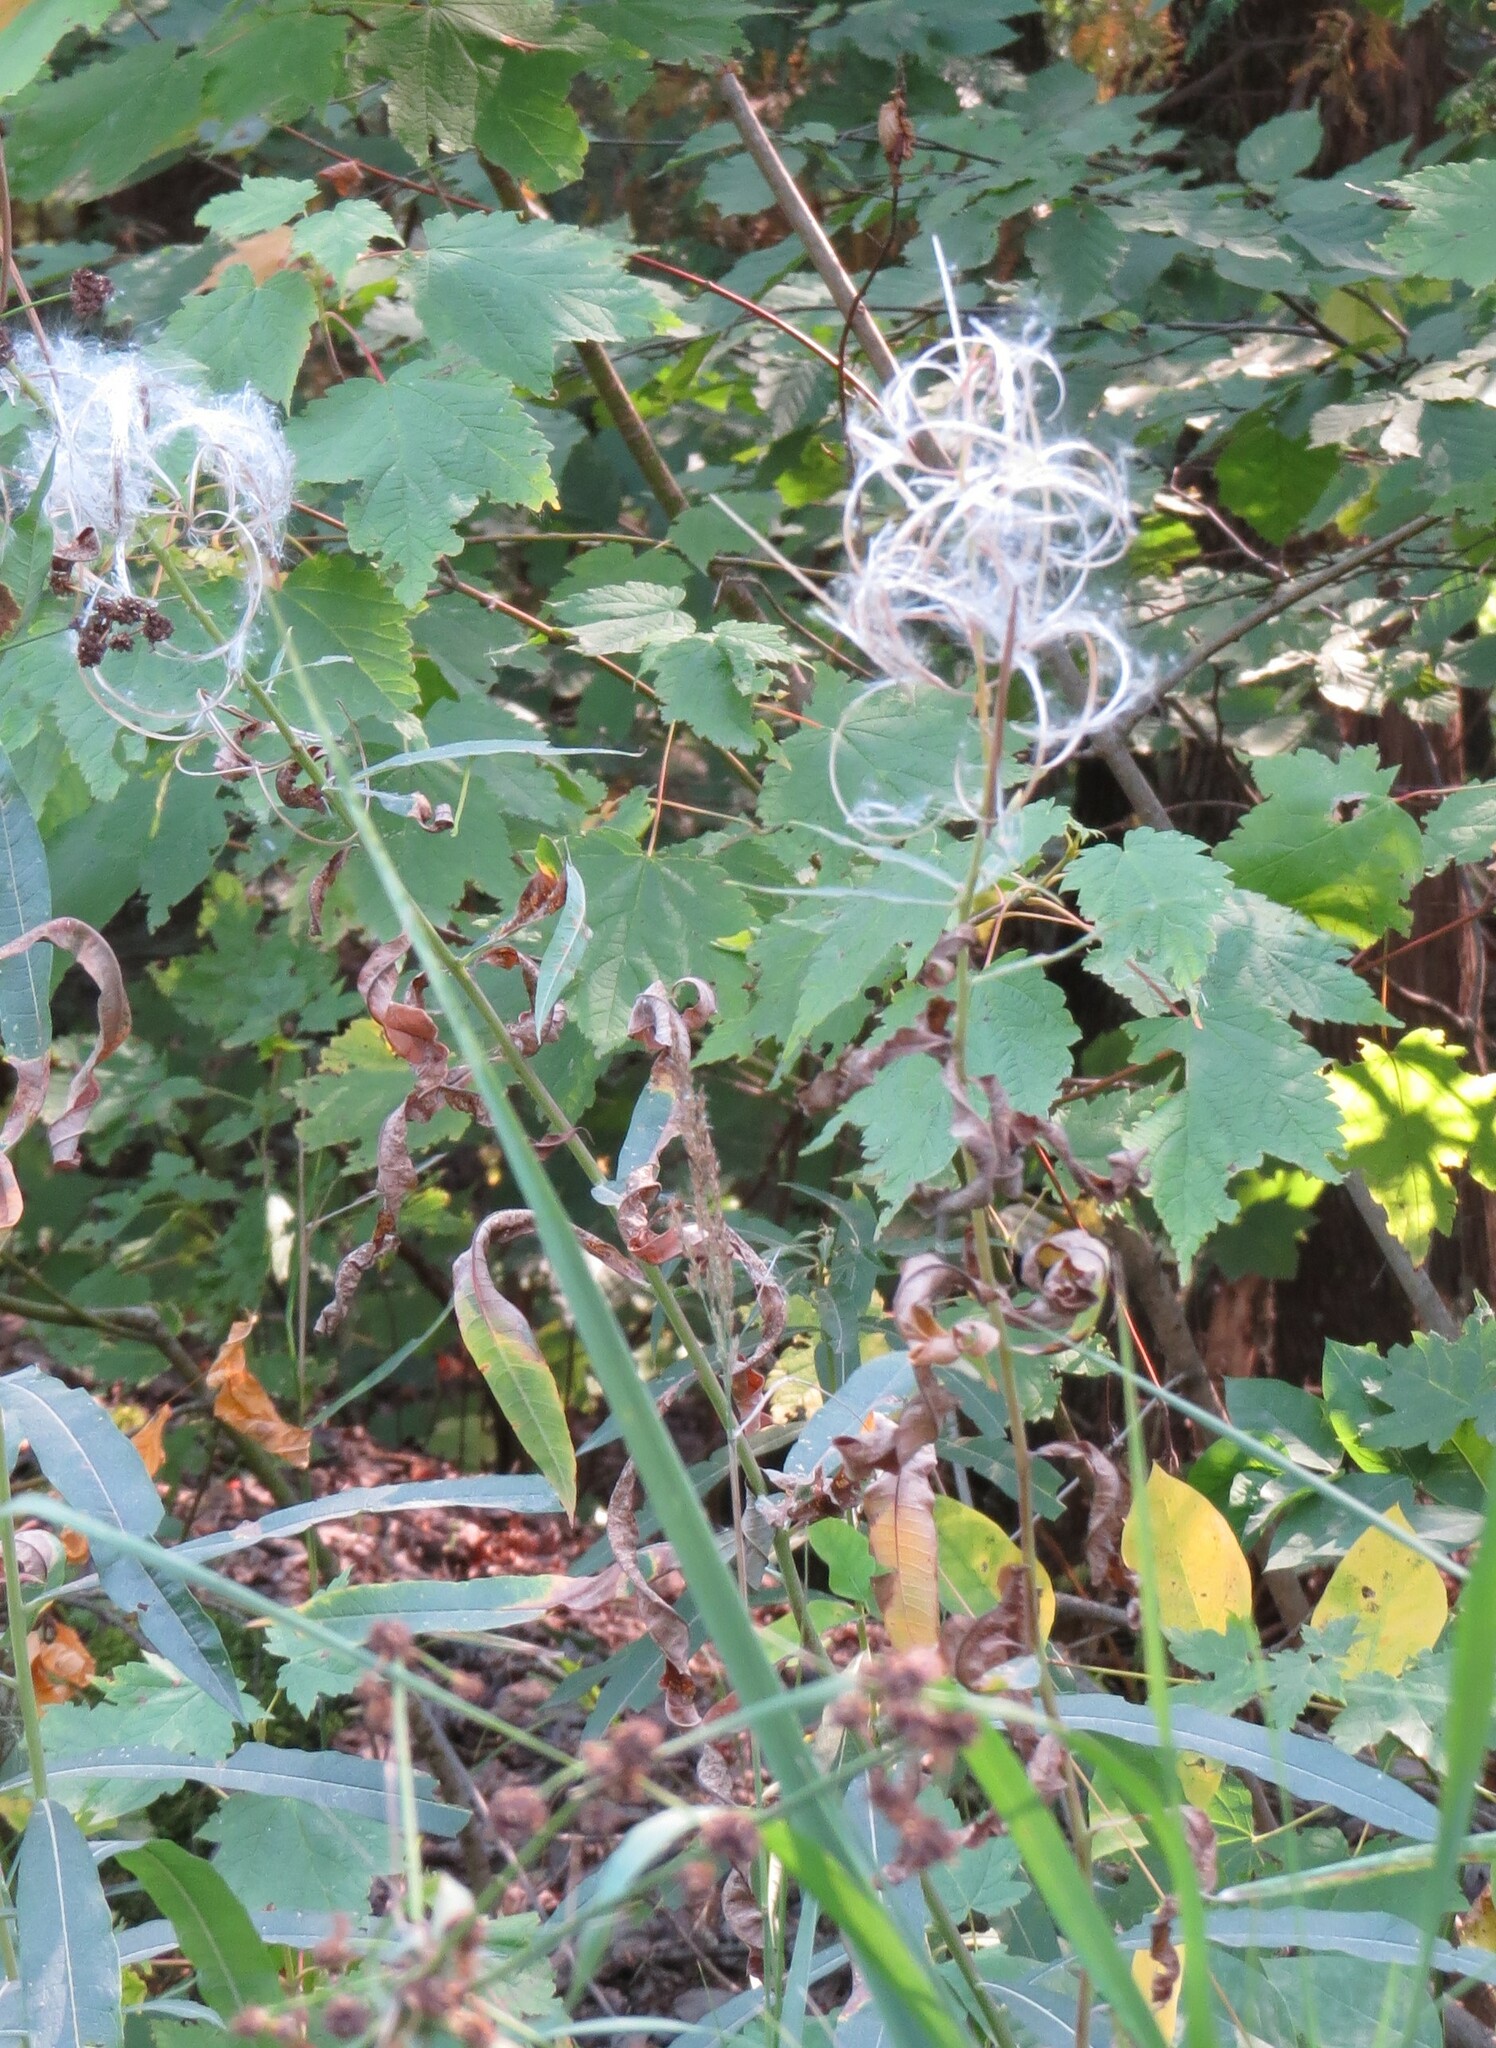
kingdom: Plantae
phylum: Tracheophyta
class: Magnoliopsida
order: Myrtales
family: Onagraceae
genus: Chamaenerion
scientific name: Chamaenerion angustifolium
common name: Fireweed
